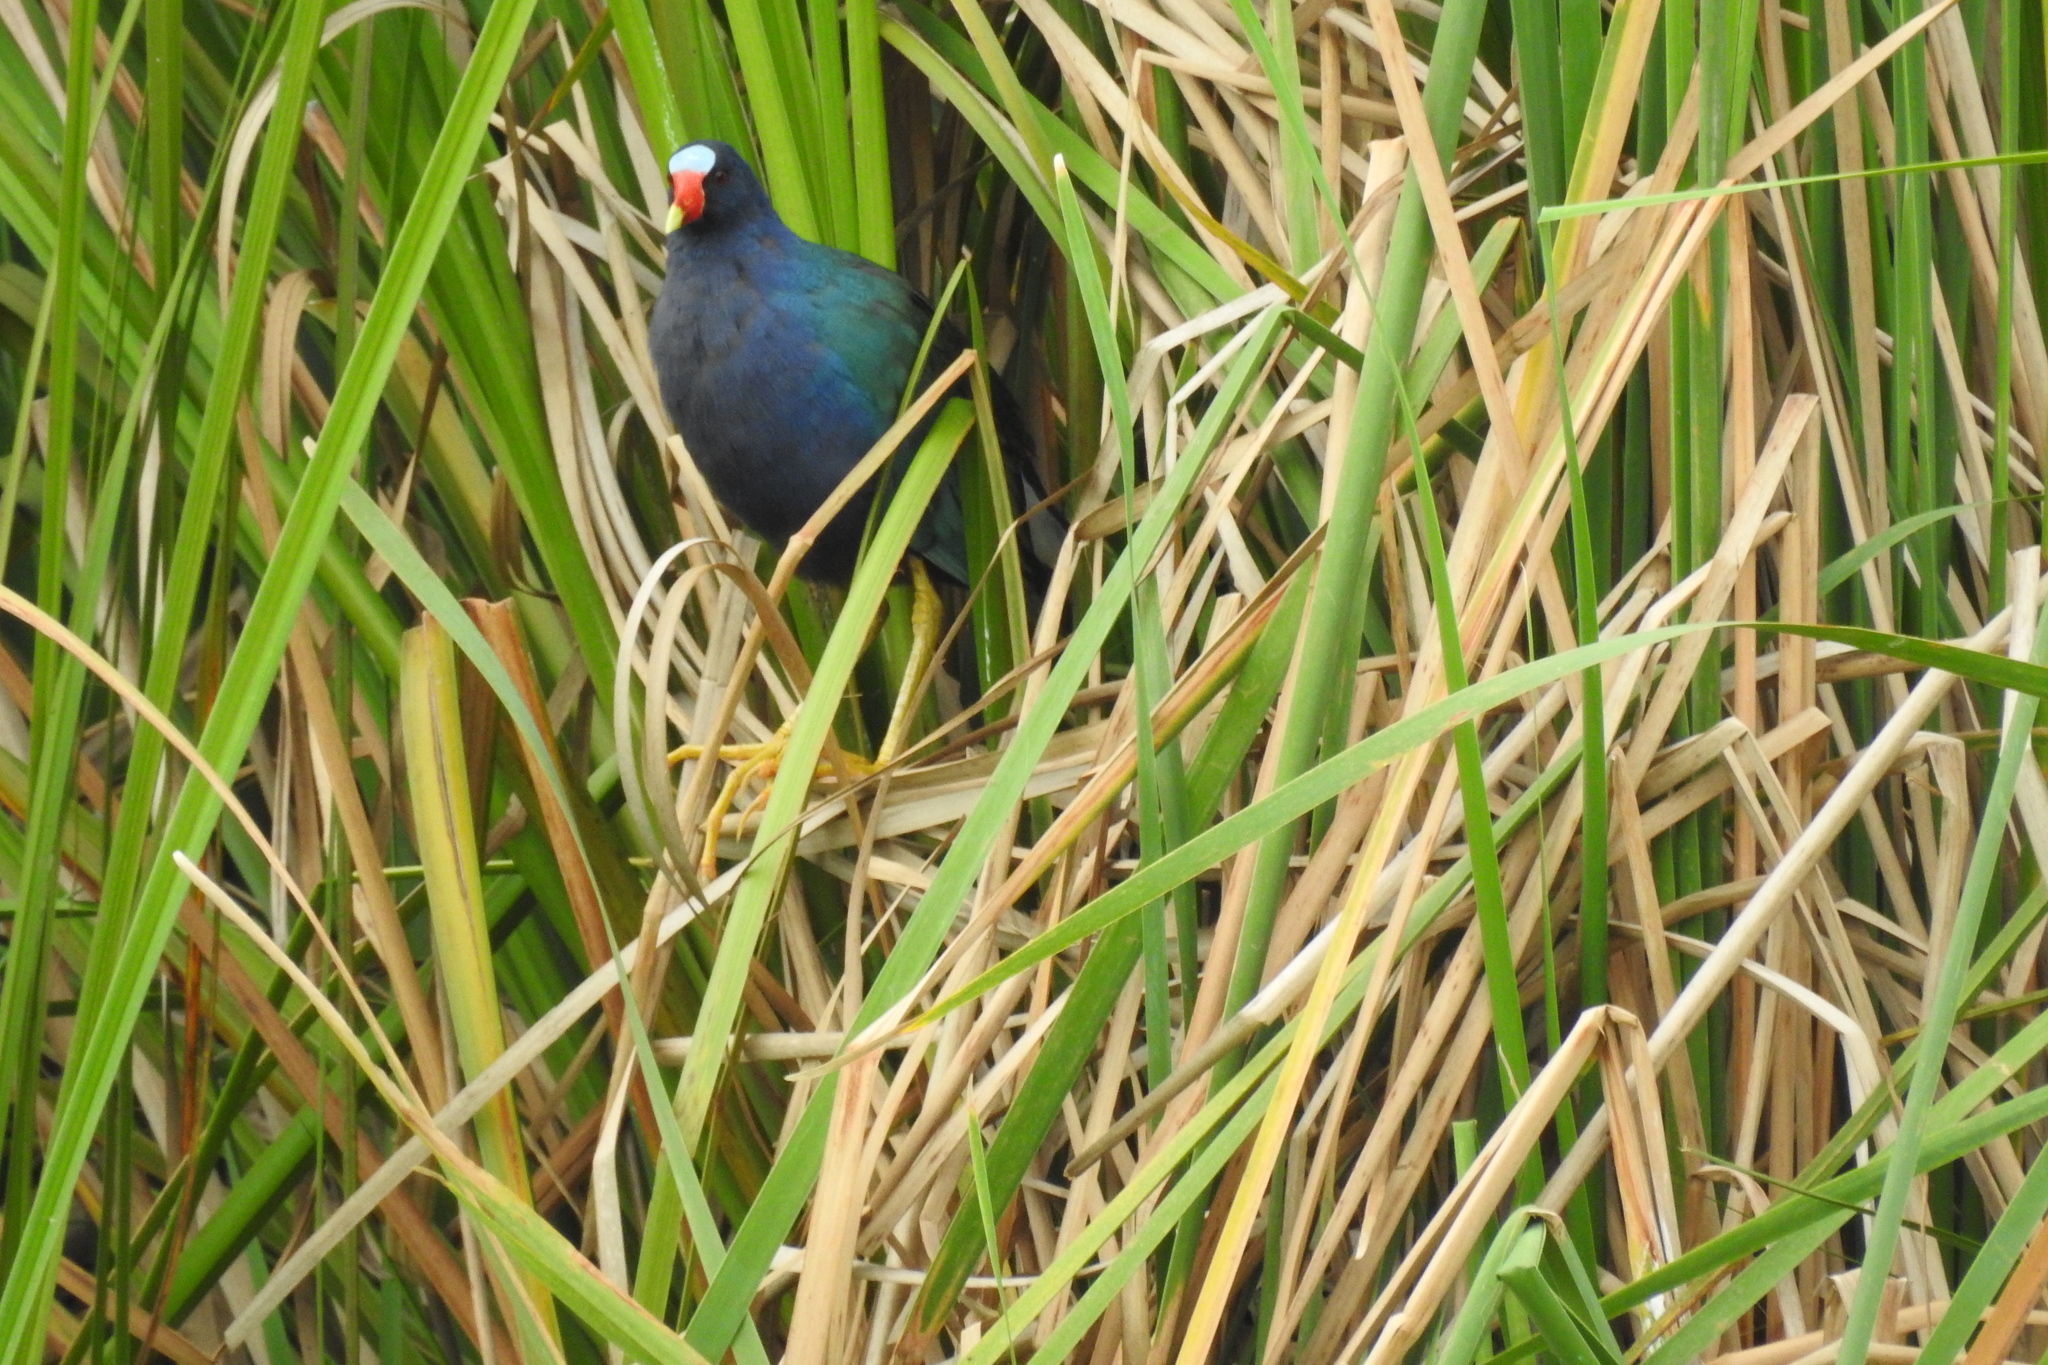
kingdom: Animalia
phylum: Chordata
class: Aves
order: Gruiformes
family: Rallidae
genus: Porphyrio
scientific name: Porphyrio martinica
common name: Purple gallinule
